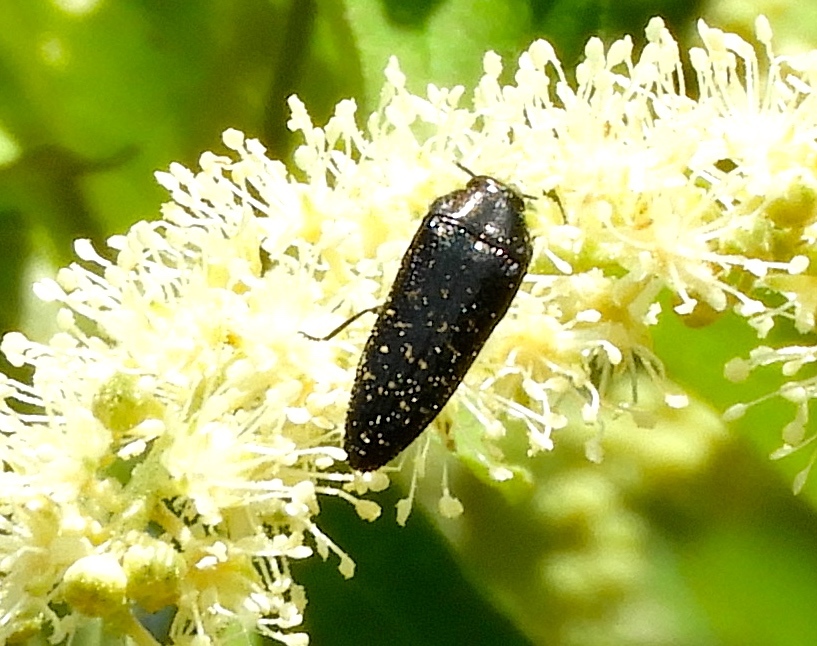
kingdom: Animalia
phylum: Arthropoda
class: Insecta
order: Coleoptera
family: Buprestidae
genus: Acmaeodera
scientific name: Acmaeodera
